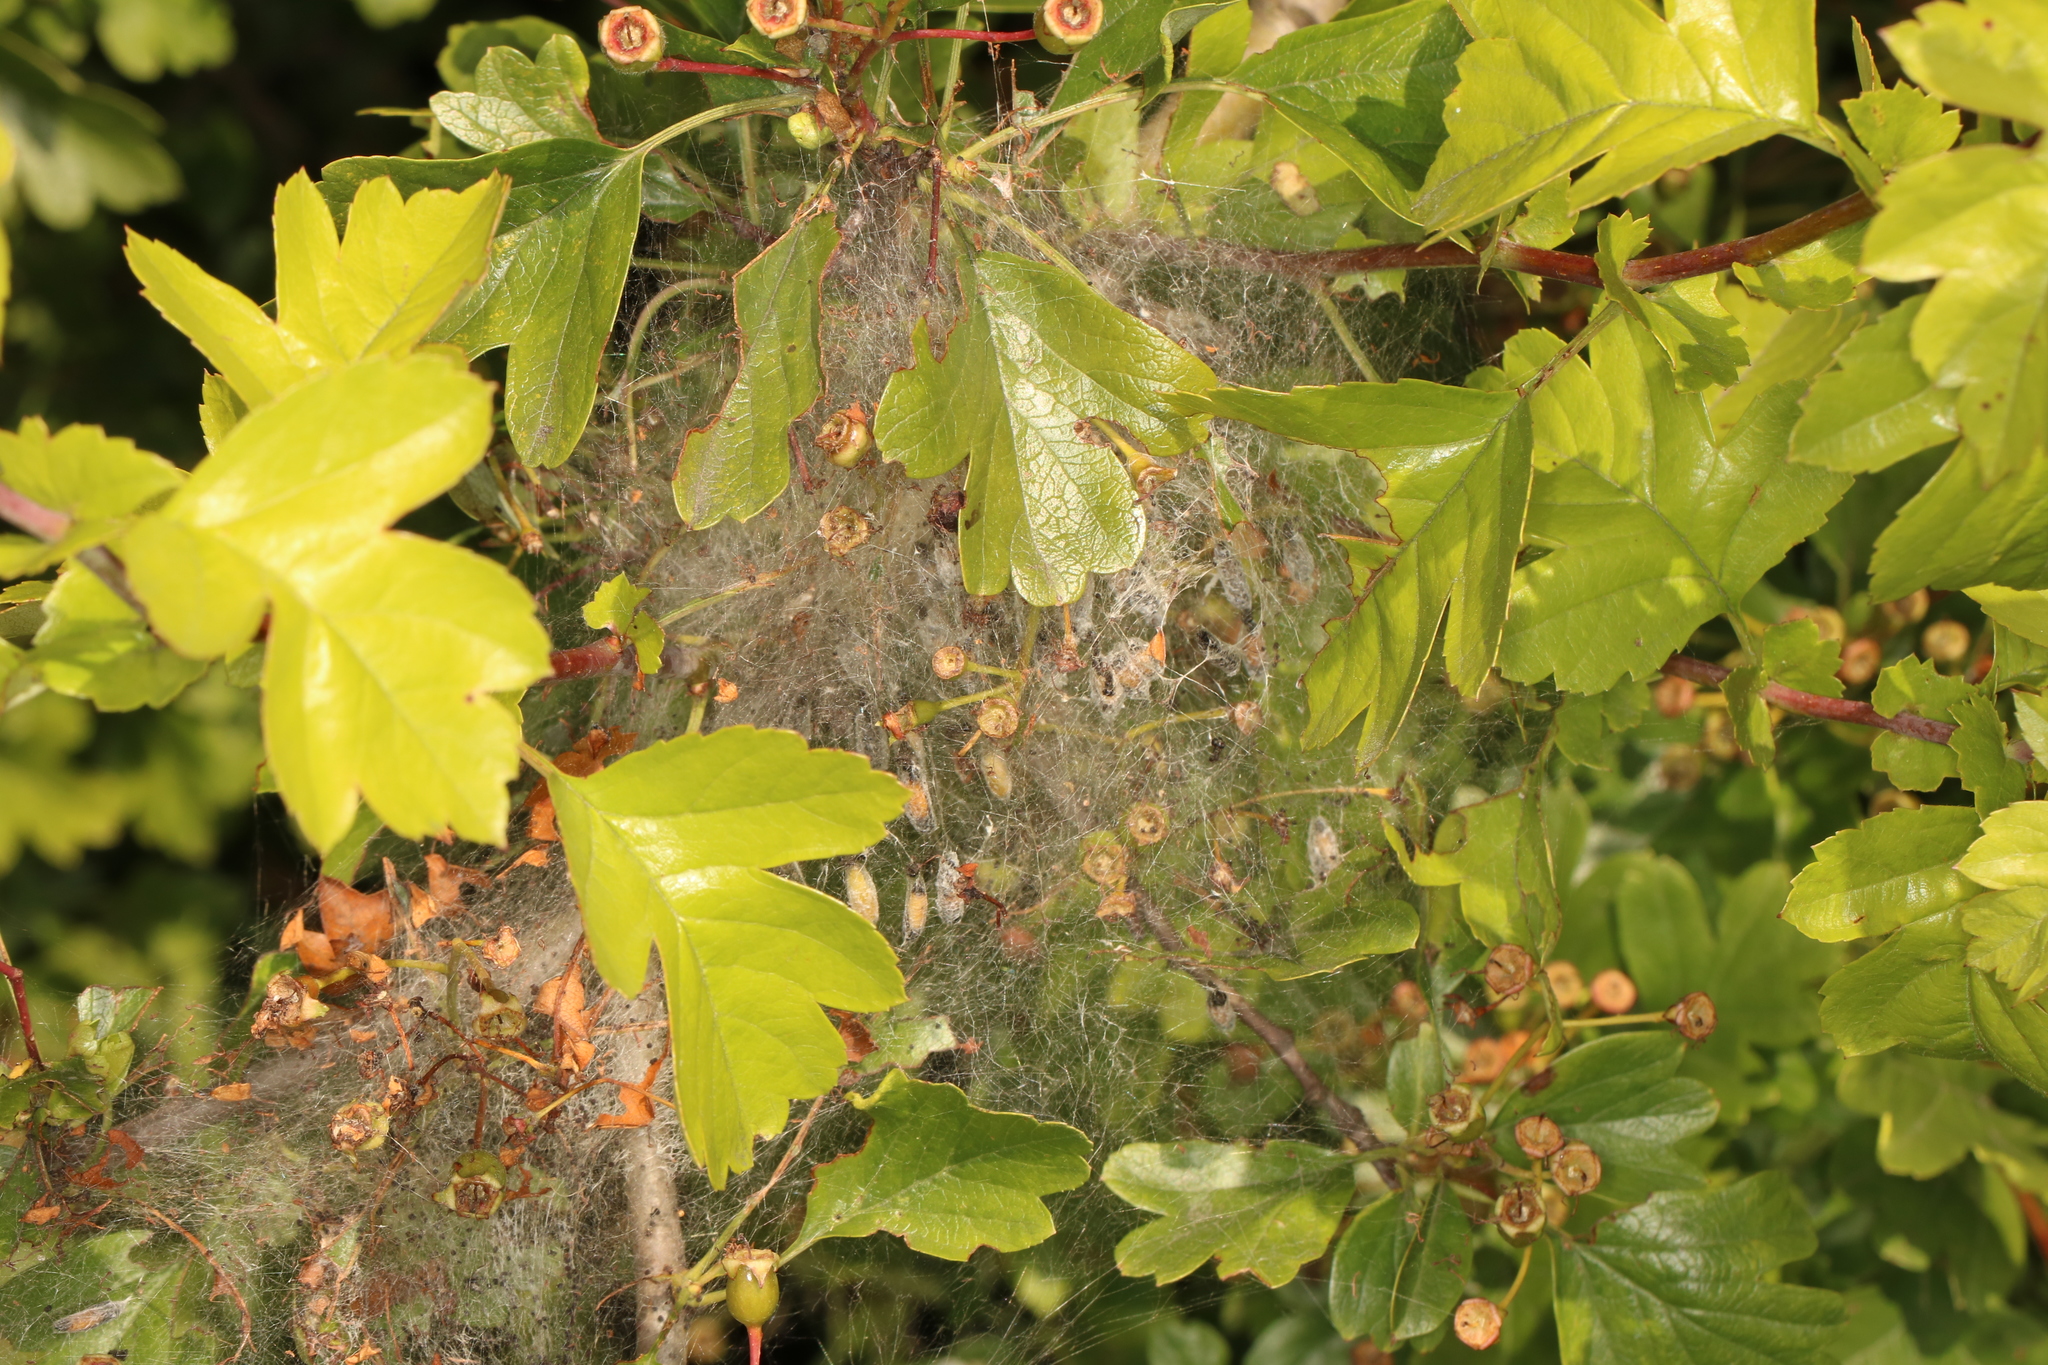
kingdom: Plantae
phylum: Tracheophyta
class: Magnoliopsida
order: Rosales
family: Rosaceae
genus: Crataegus
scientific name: Crataegus monogyna
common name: Hawthorn
